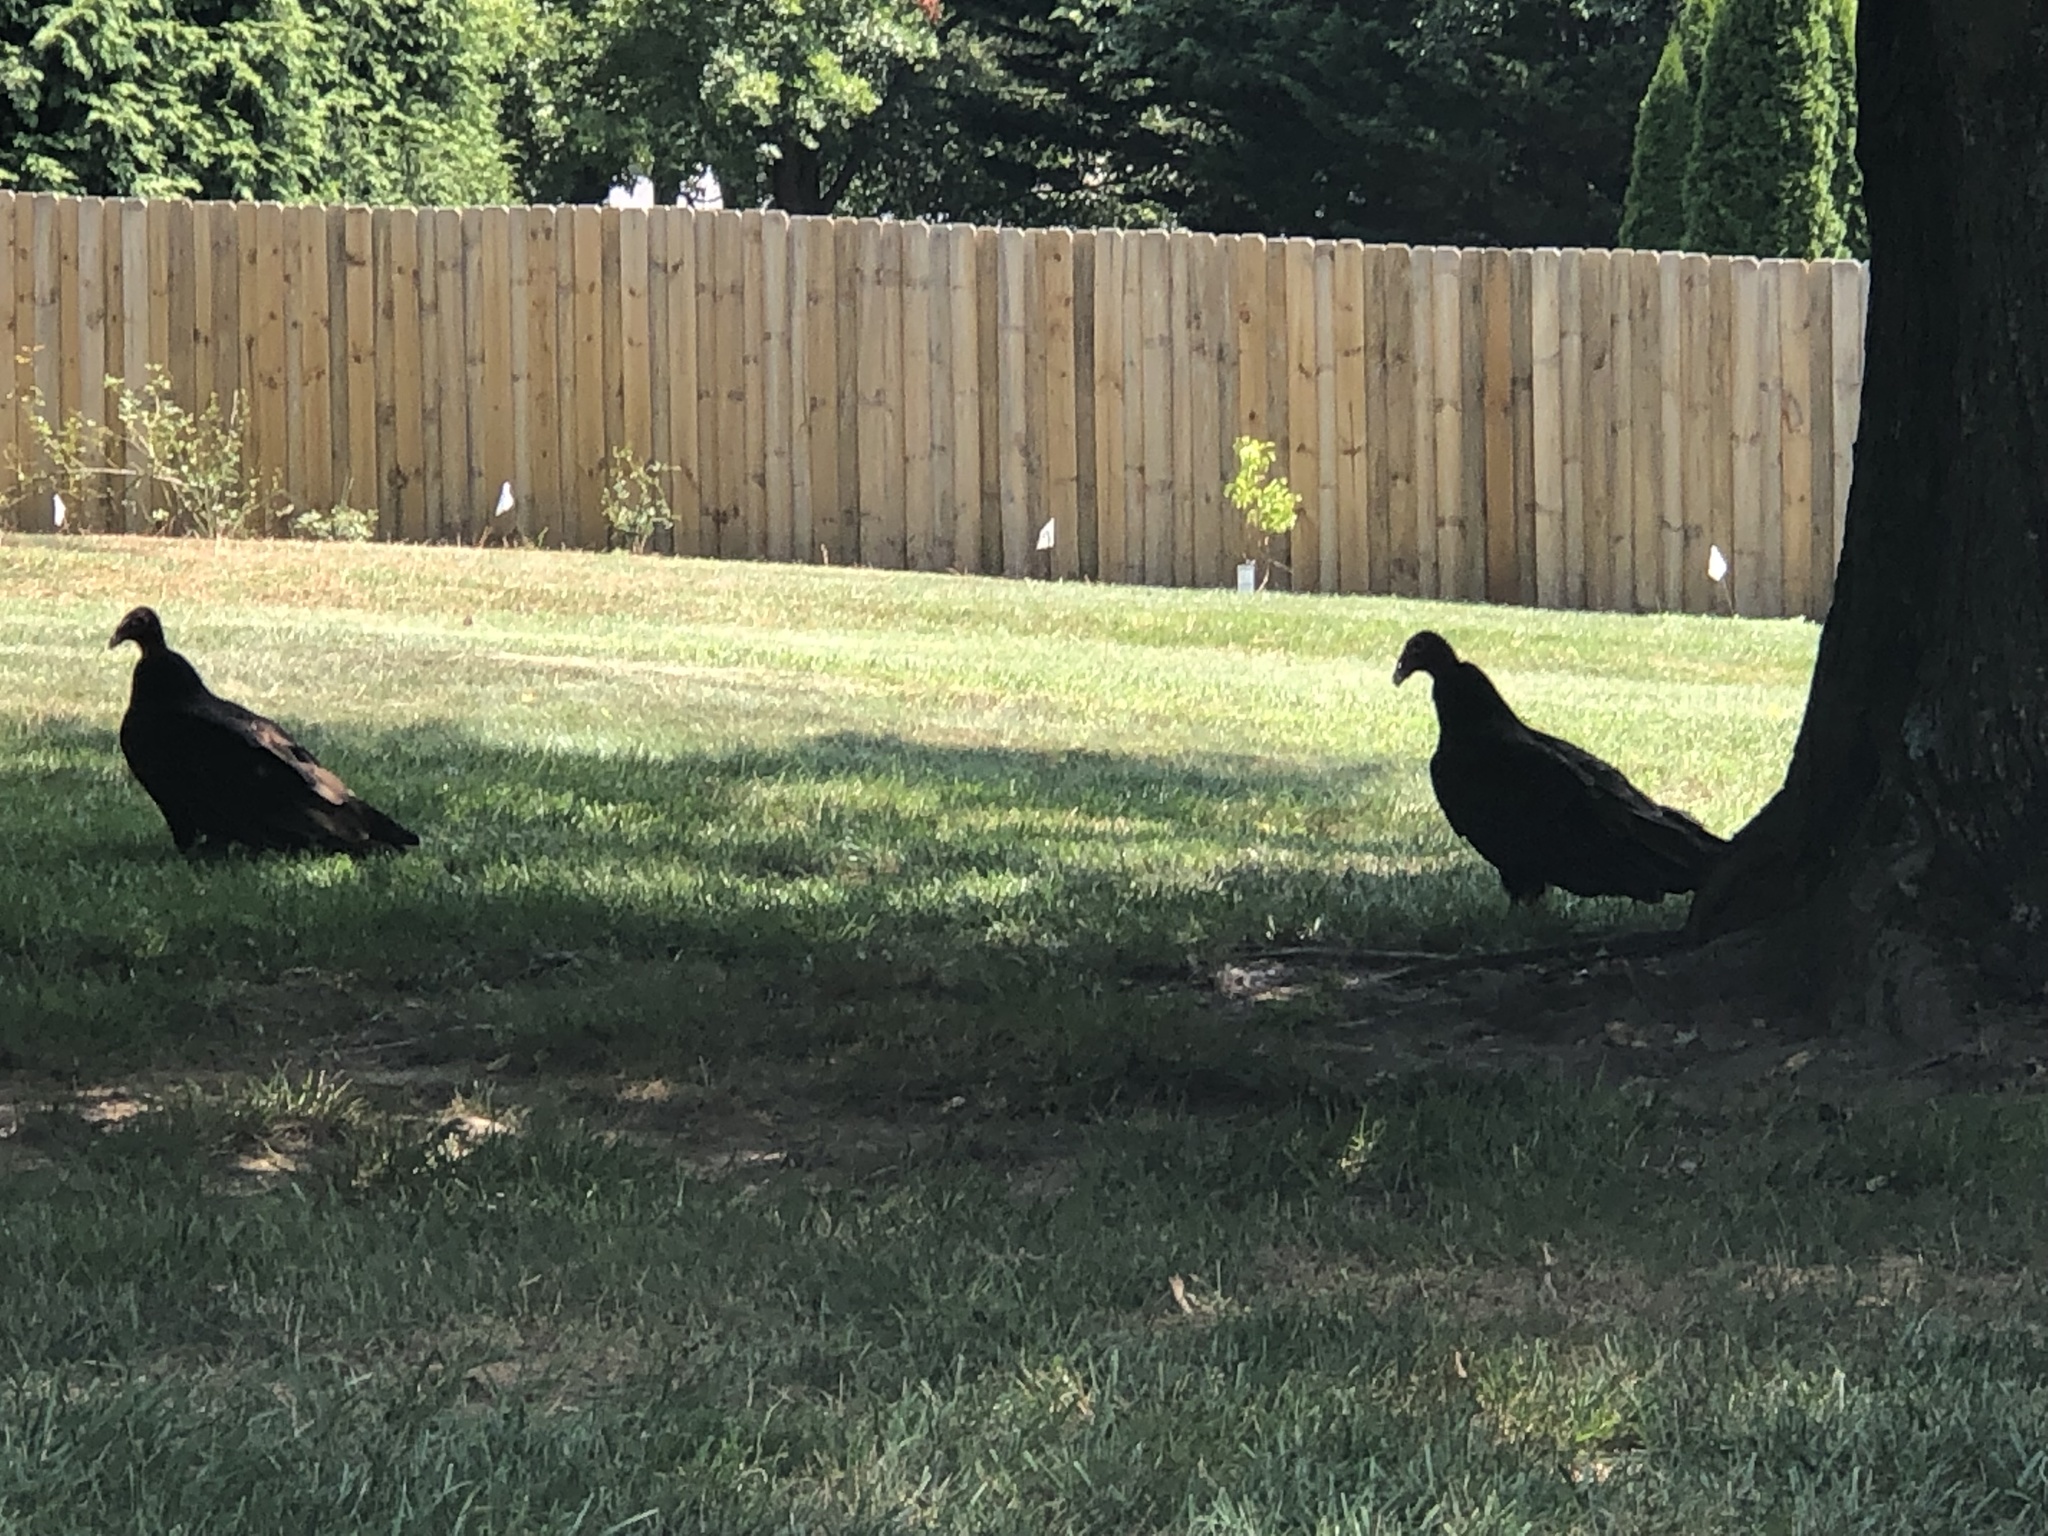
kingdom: Animalia
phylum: Chordata
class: Aves
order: Accipitriformes
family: Cathartidae
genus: Cathartes
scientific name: Cathartes aura
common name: Turkey vulture
